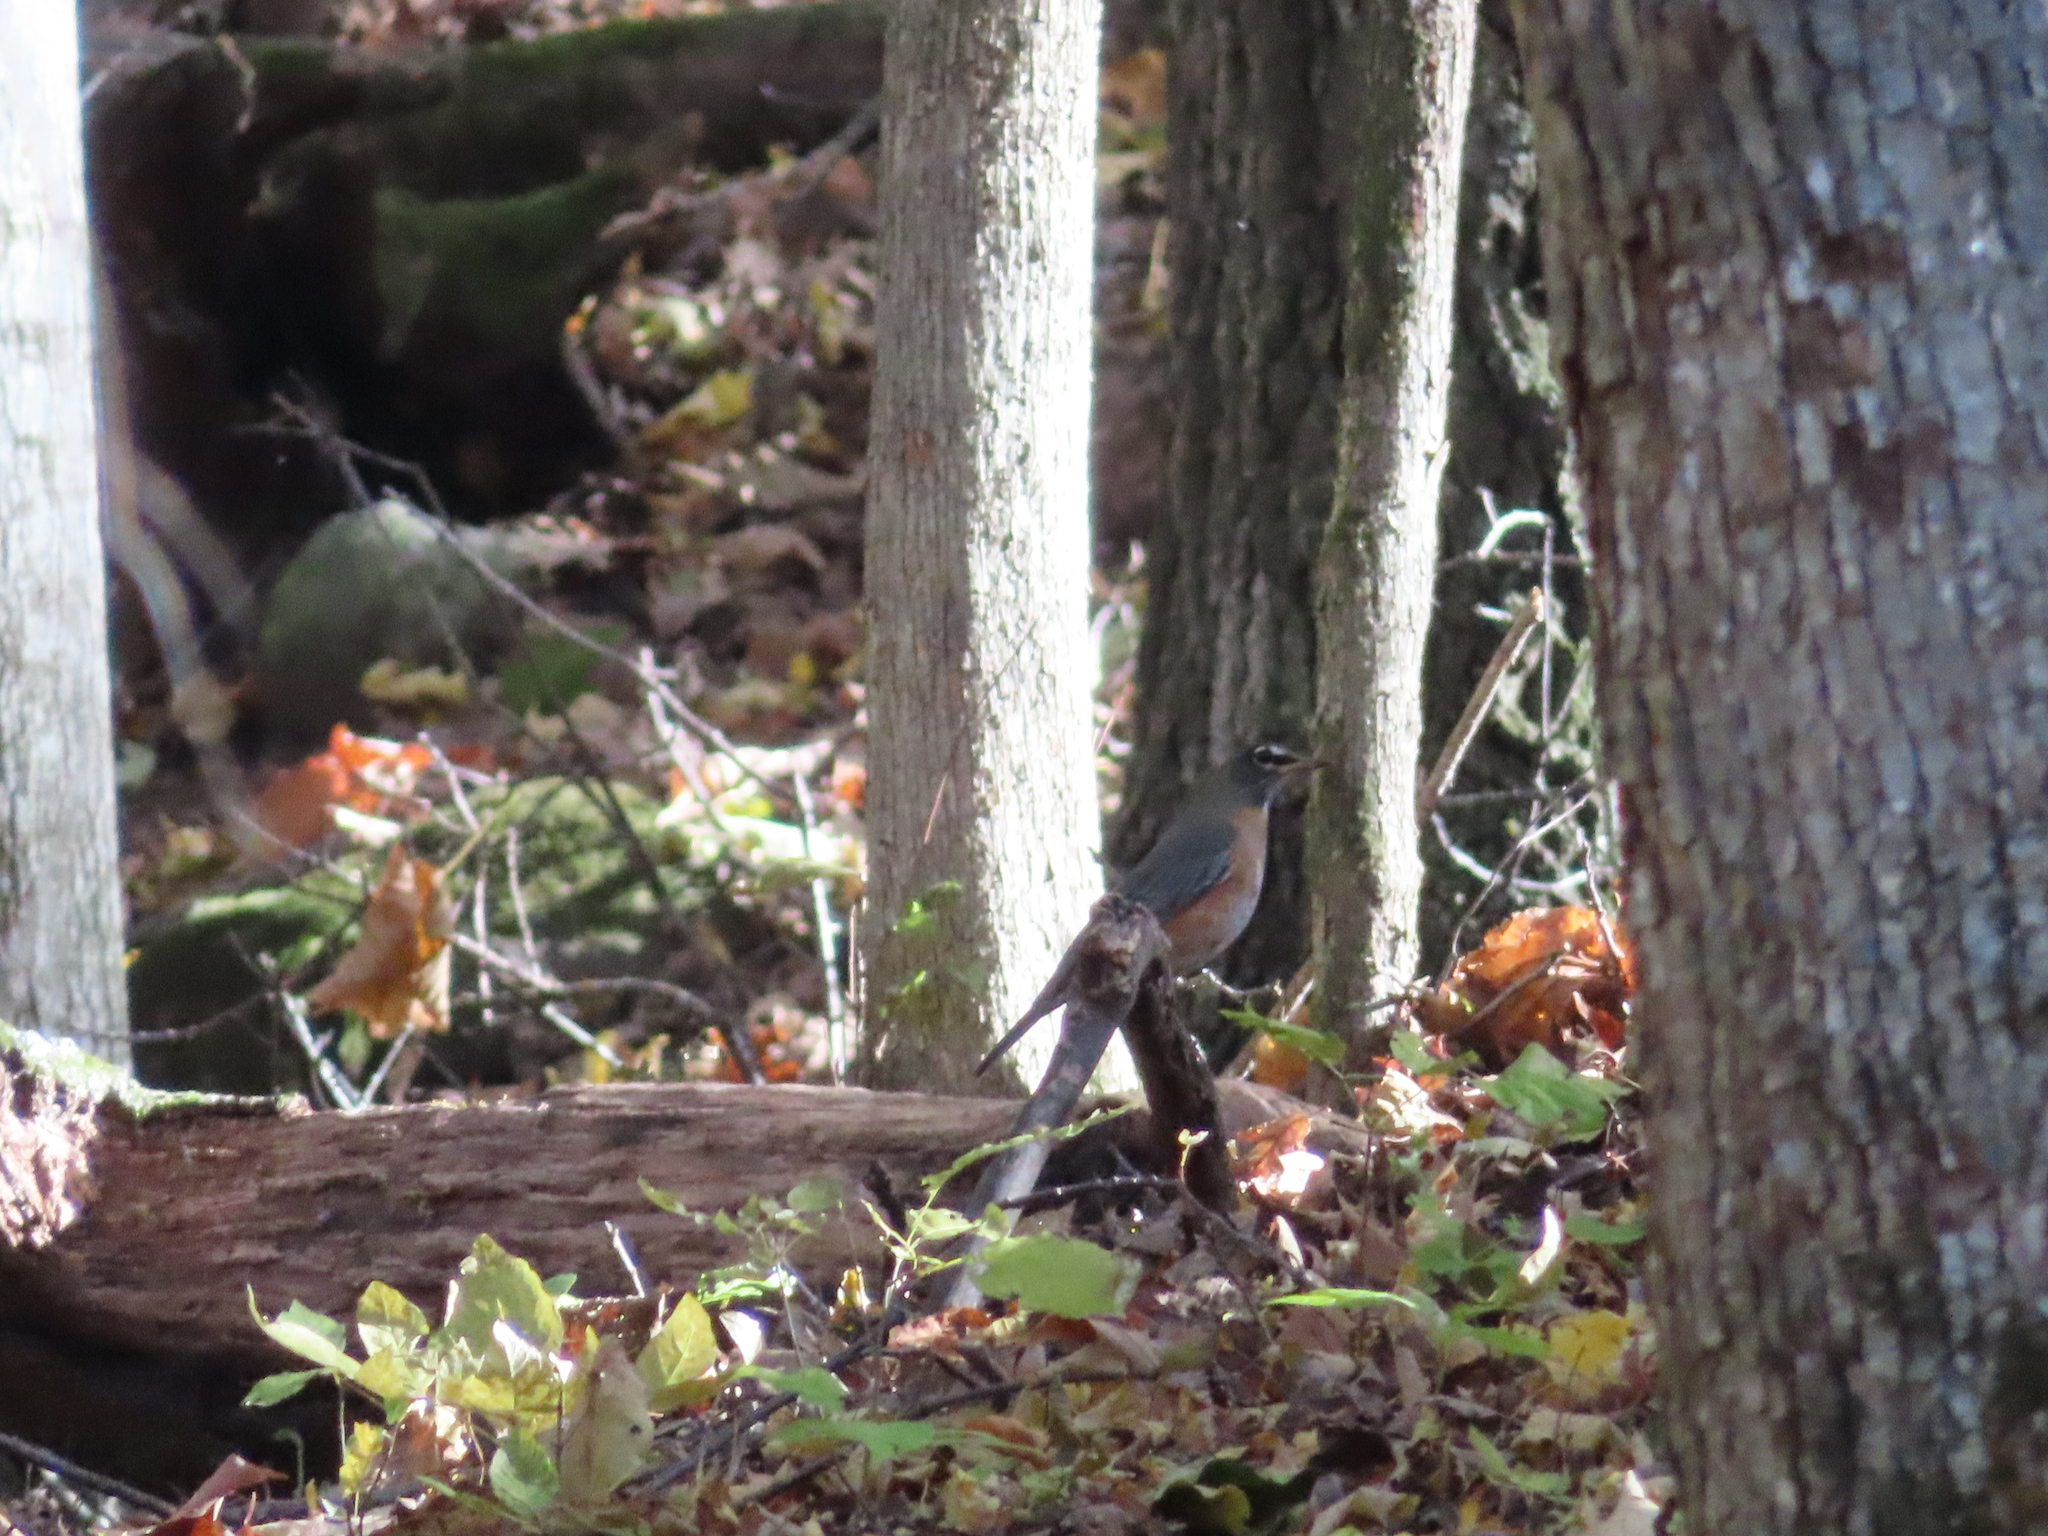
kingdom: Animalia
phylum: Chordata
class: Aves
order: Passeriformes
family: Turdidae
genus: Turdus
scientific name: Turdus migratorius
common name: American robin
